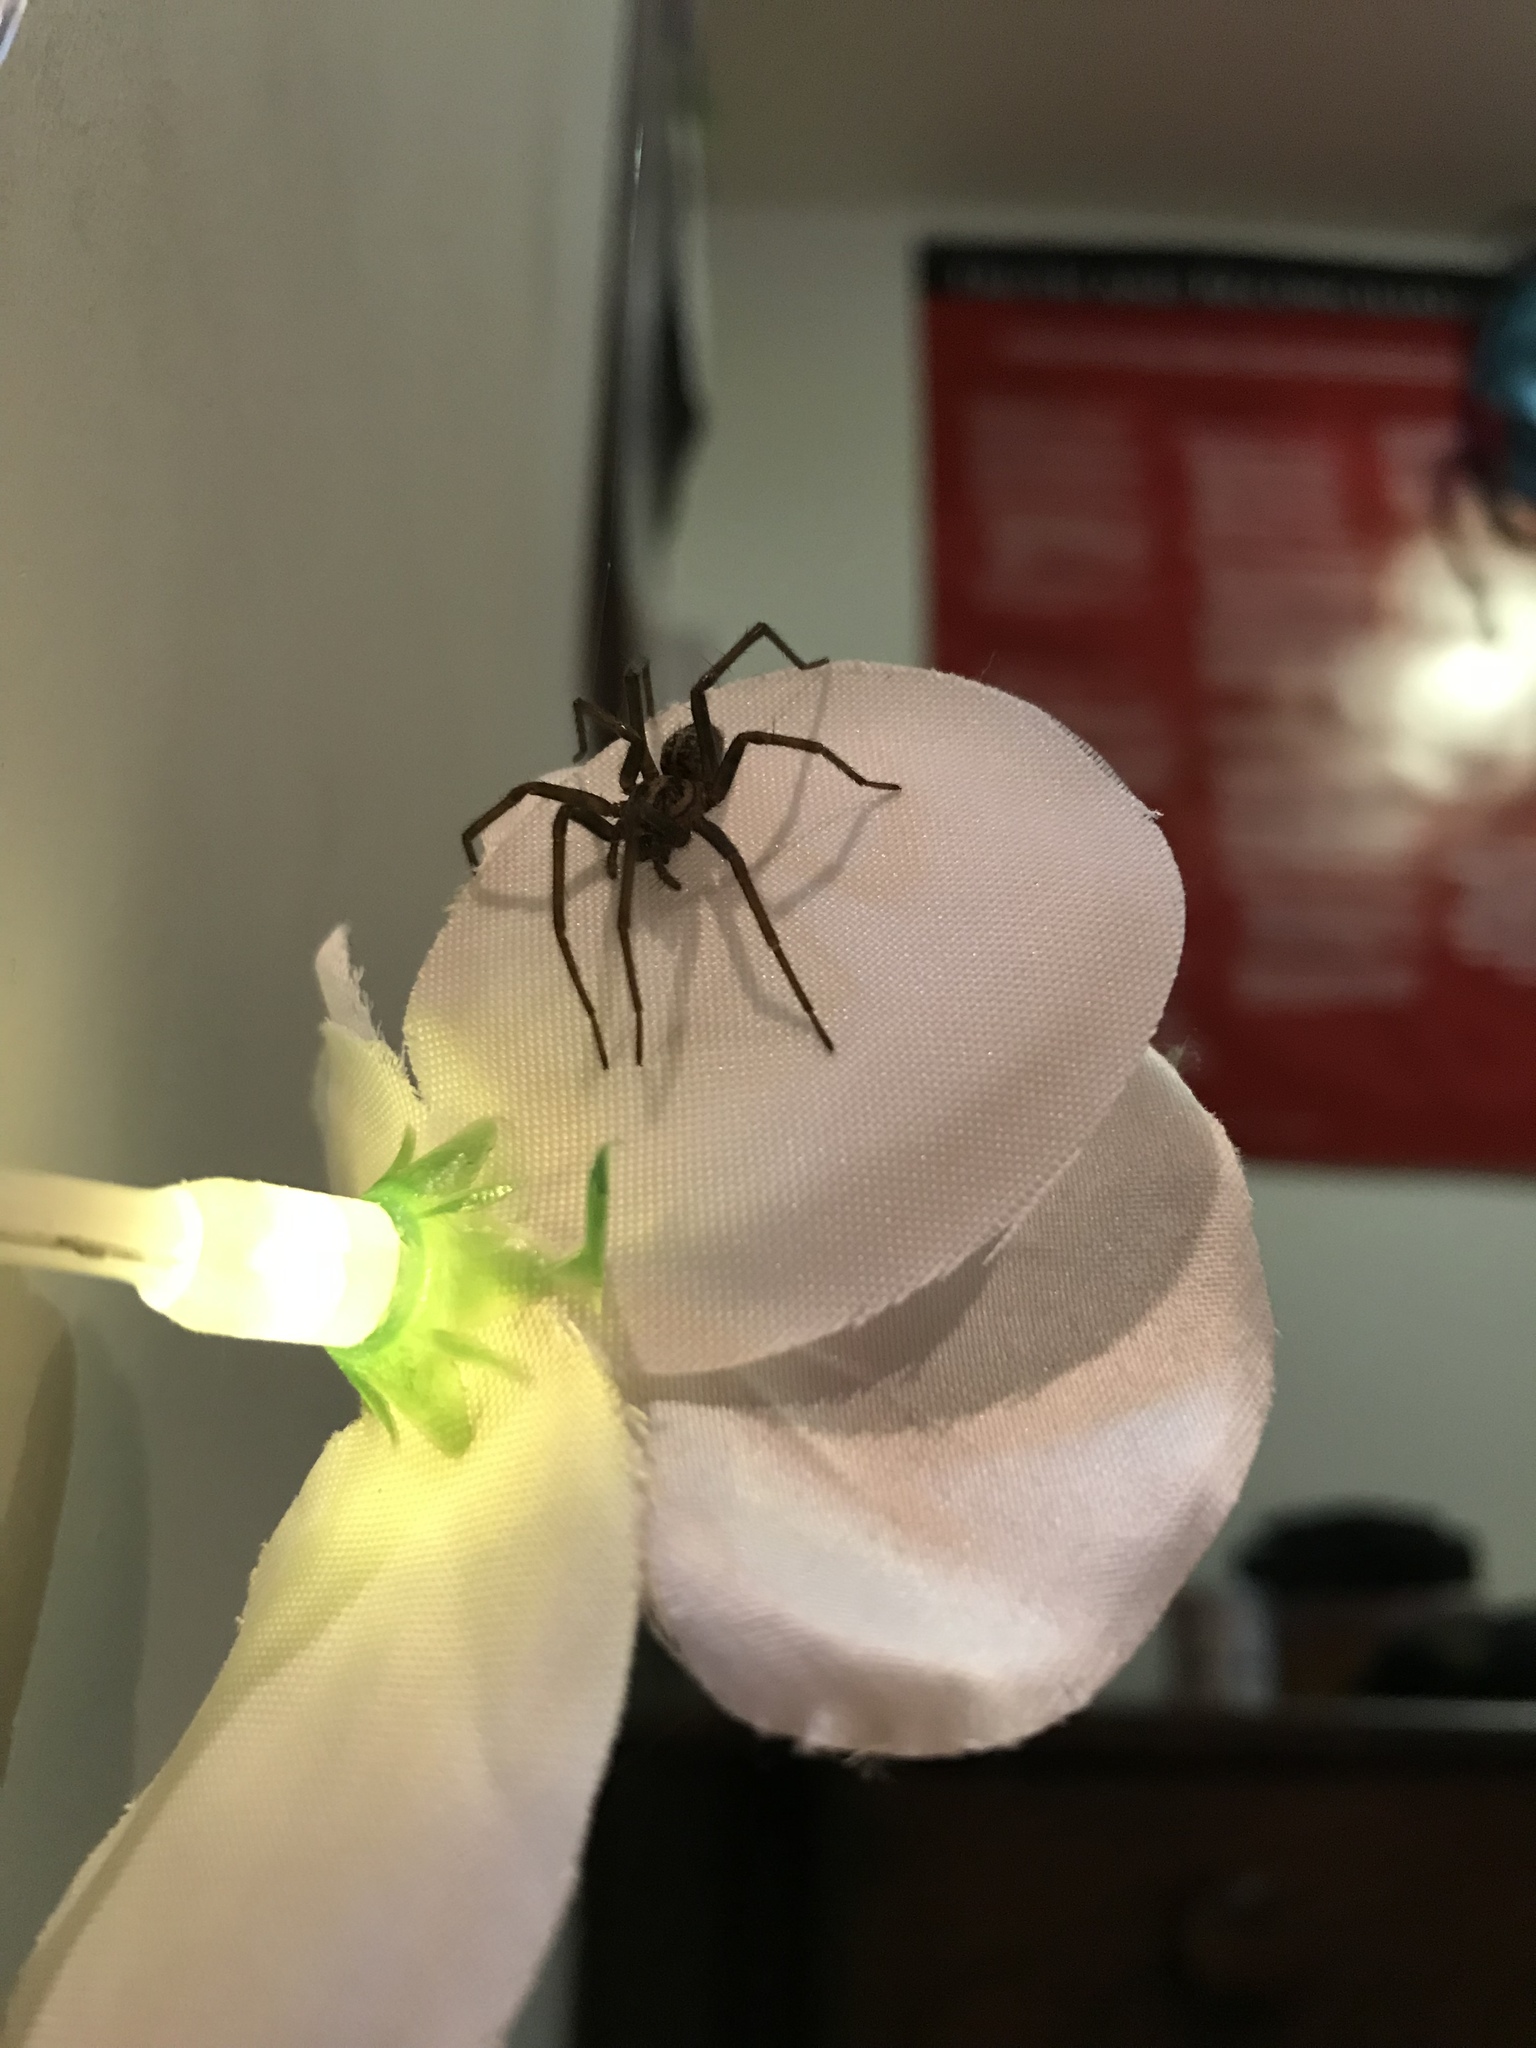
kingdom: Animalia
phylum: Arthropoda
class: Arachnida
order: Araneae
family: Agelenidae
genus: Eratigena
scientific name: Eratigena duellica
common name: Giant house spider
